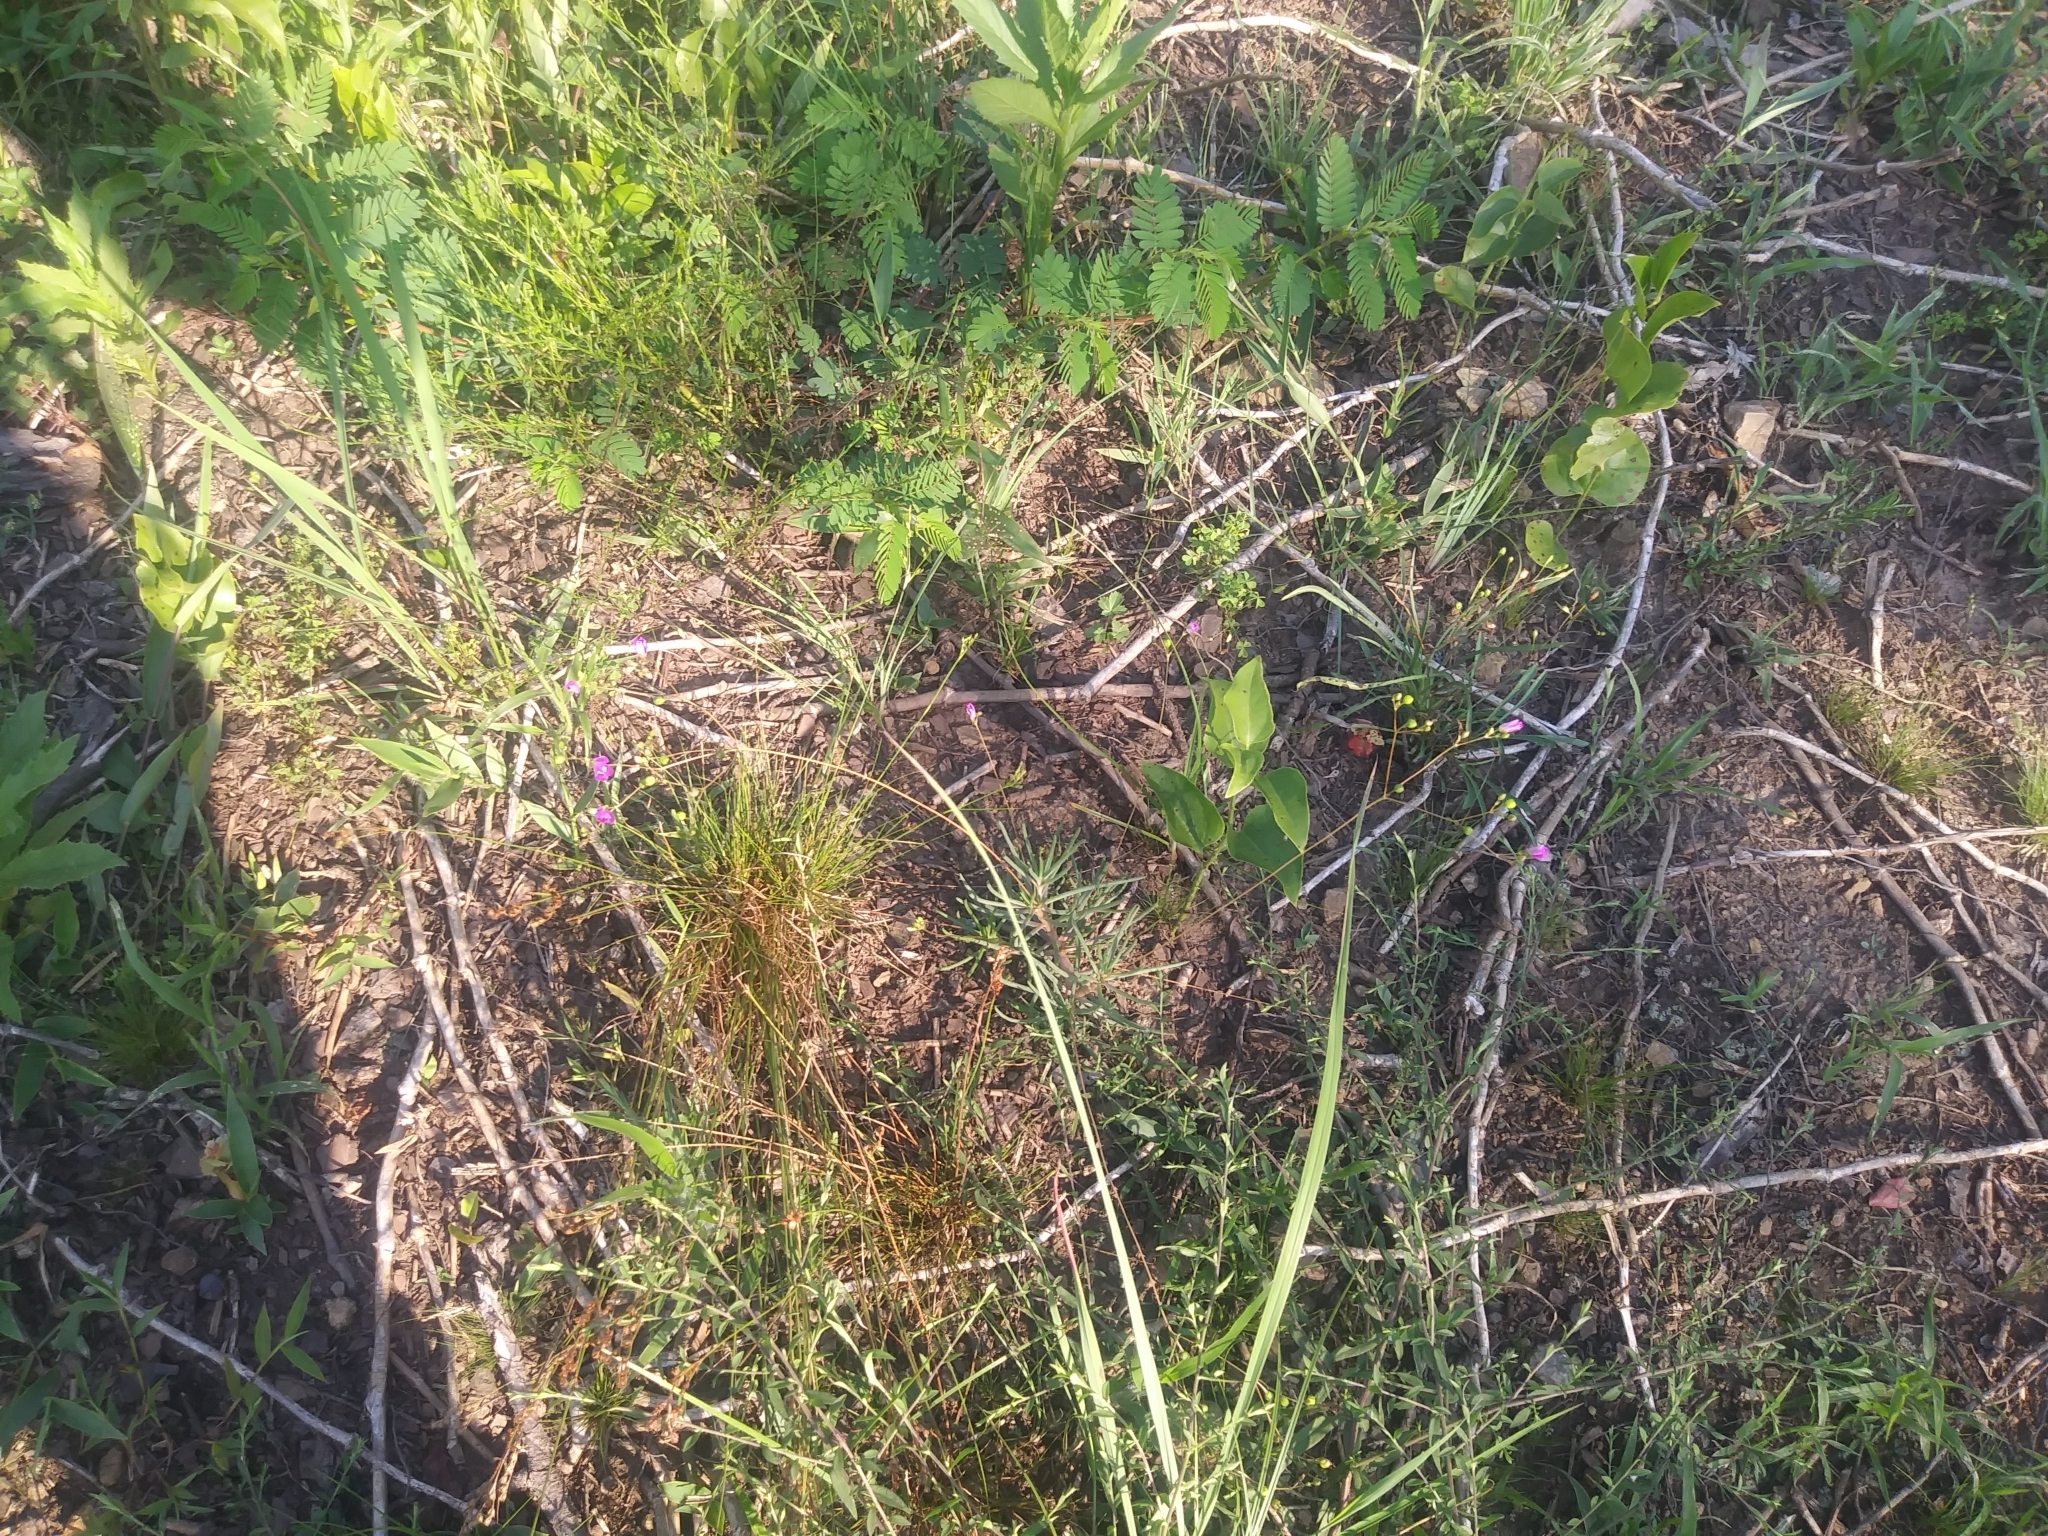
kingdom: Plantae
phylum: Tracheophyta
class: Magnoliopsida
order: Caryophyllales
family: Montiaceae
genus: Phemeranthus
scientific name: Phemeranthus teretifolius
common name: Quill fameflower
